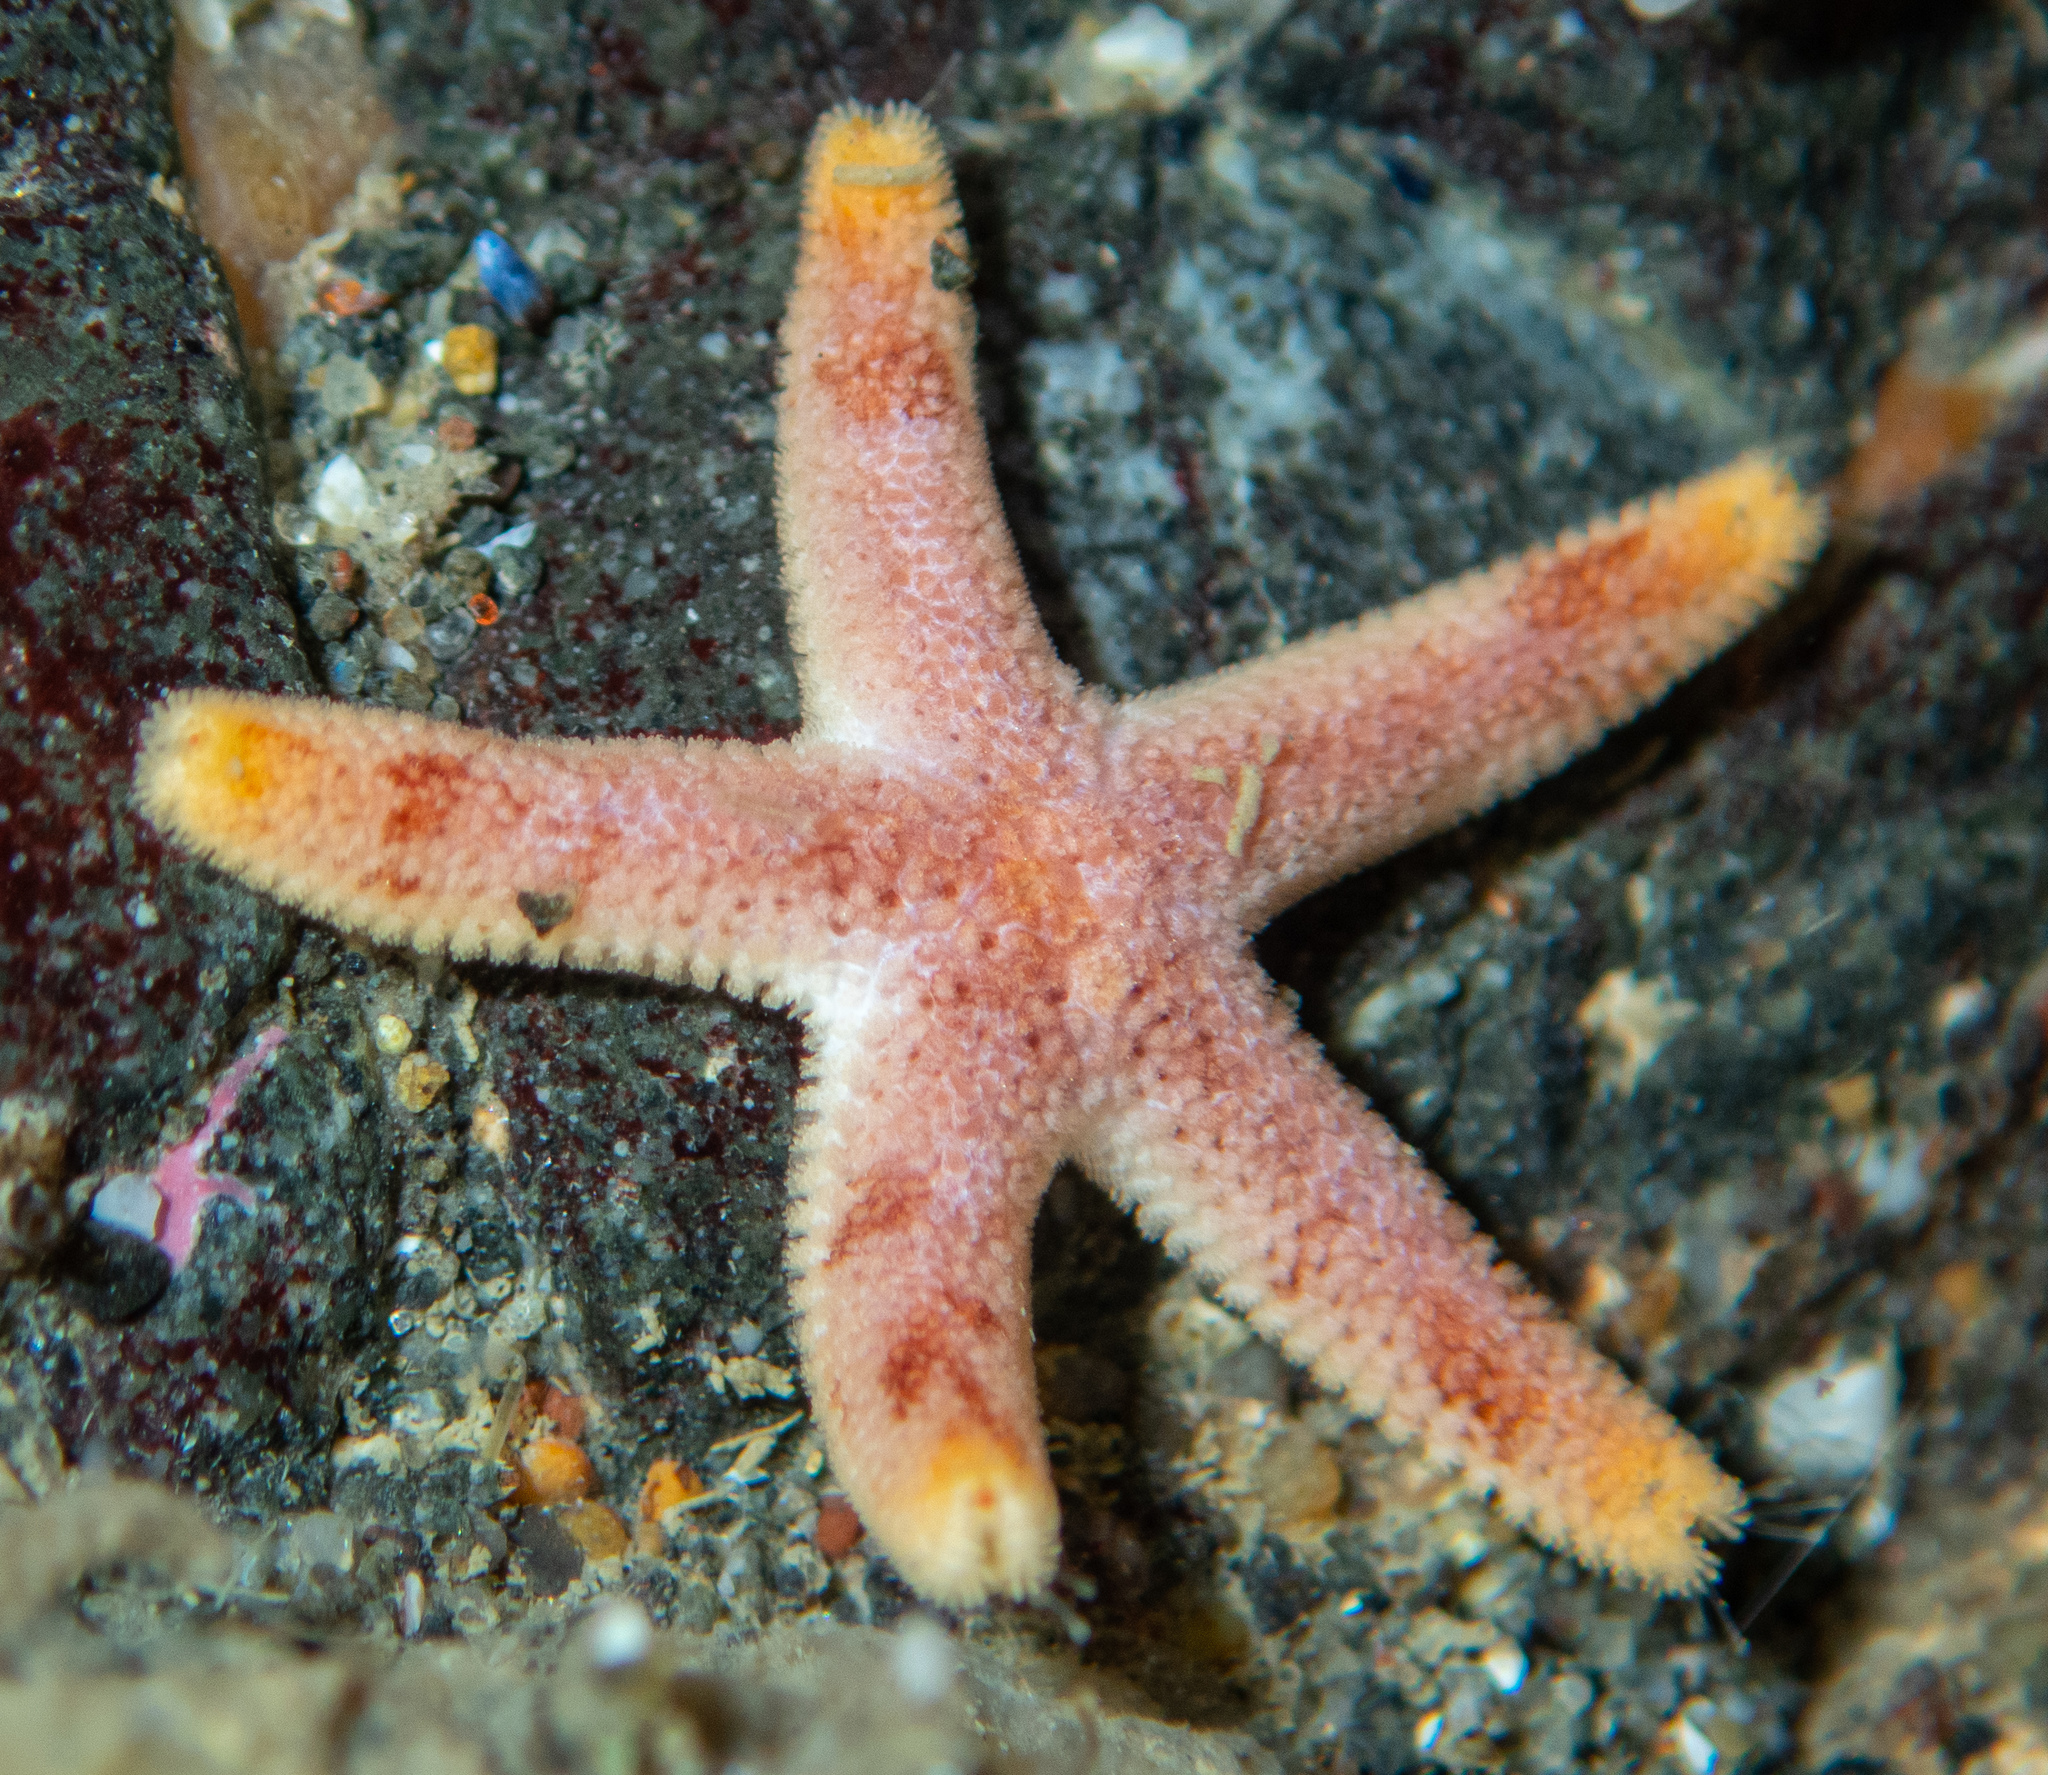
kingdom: Animalia
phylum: Echinodermata
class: Asteroidea
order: Spinulosida
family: Echinasteridae
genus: Henricia
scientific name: Henricia pumila
